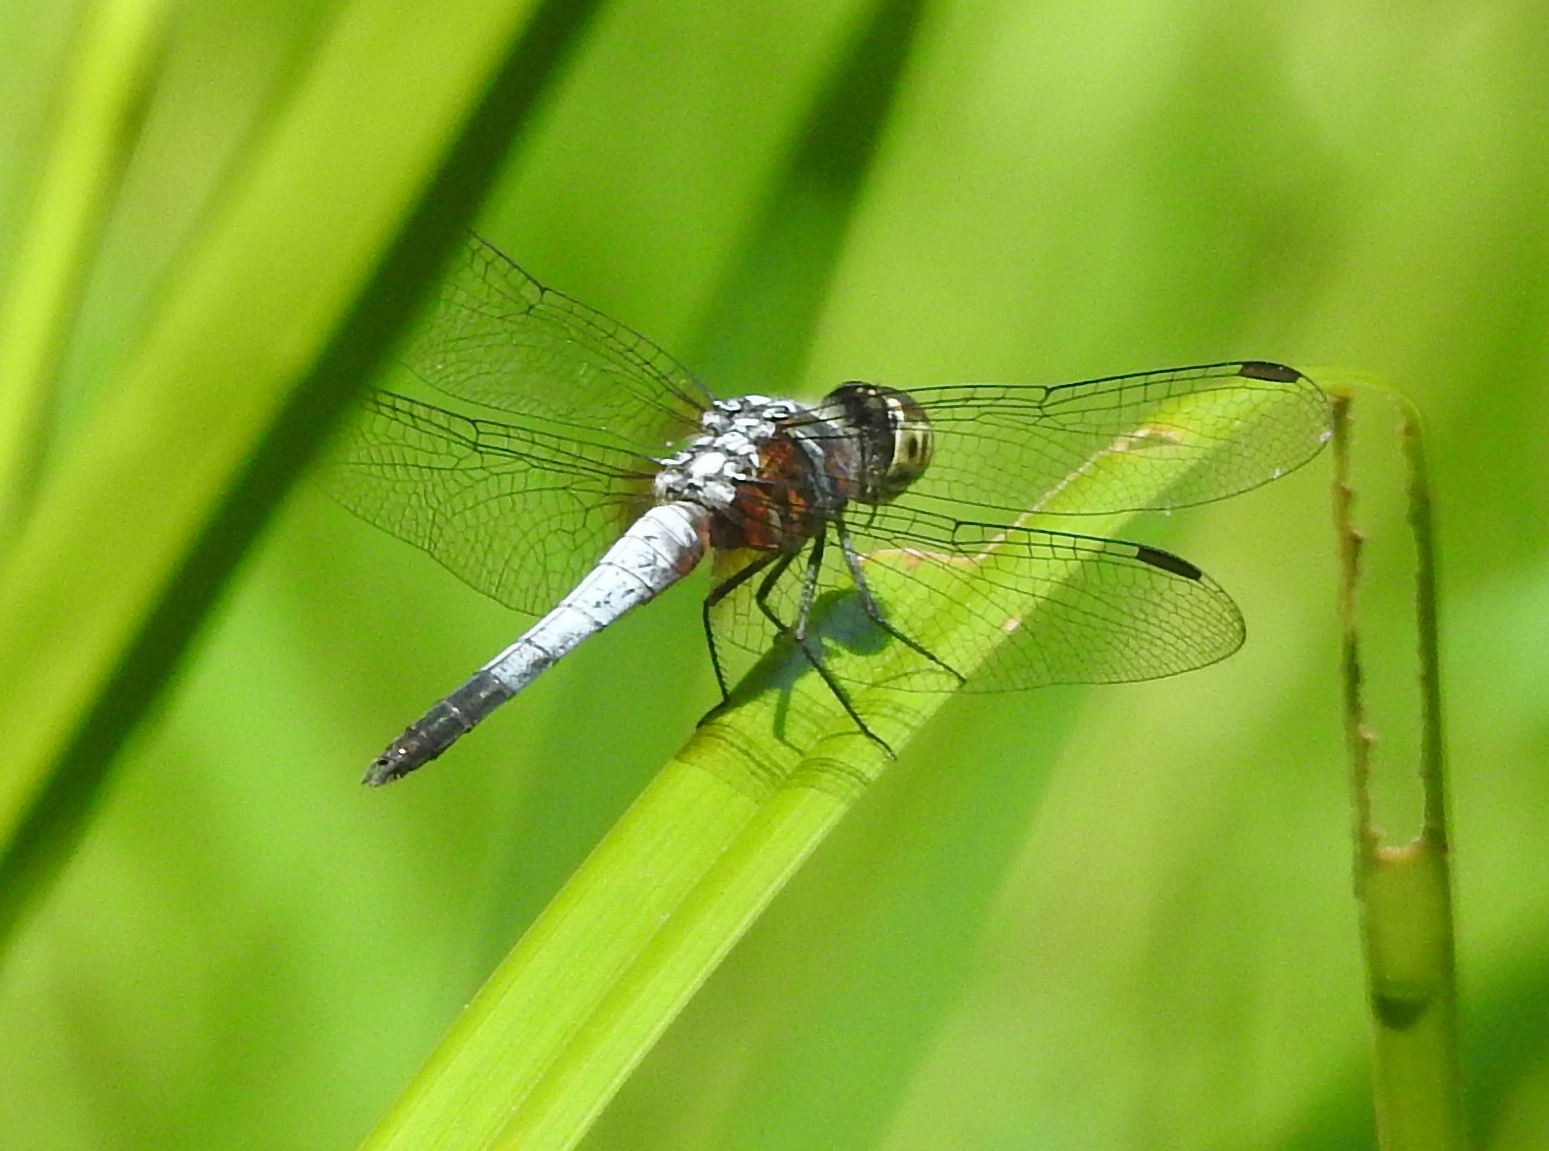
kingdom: Animalia
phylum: Arthropoda
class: Insecta
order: Odonata
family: Libellulidae
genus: Brachydiplax
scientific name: Brachydiplax chalybea
